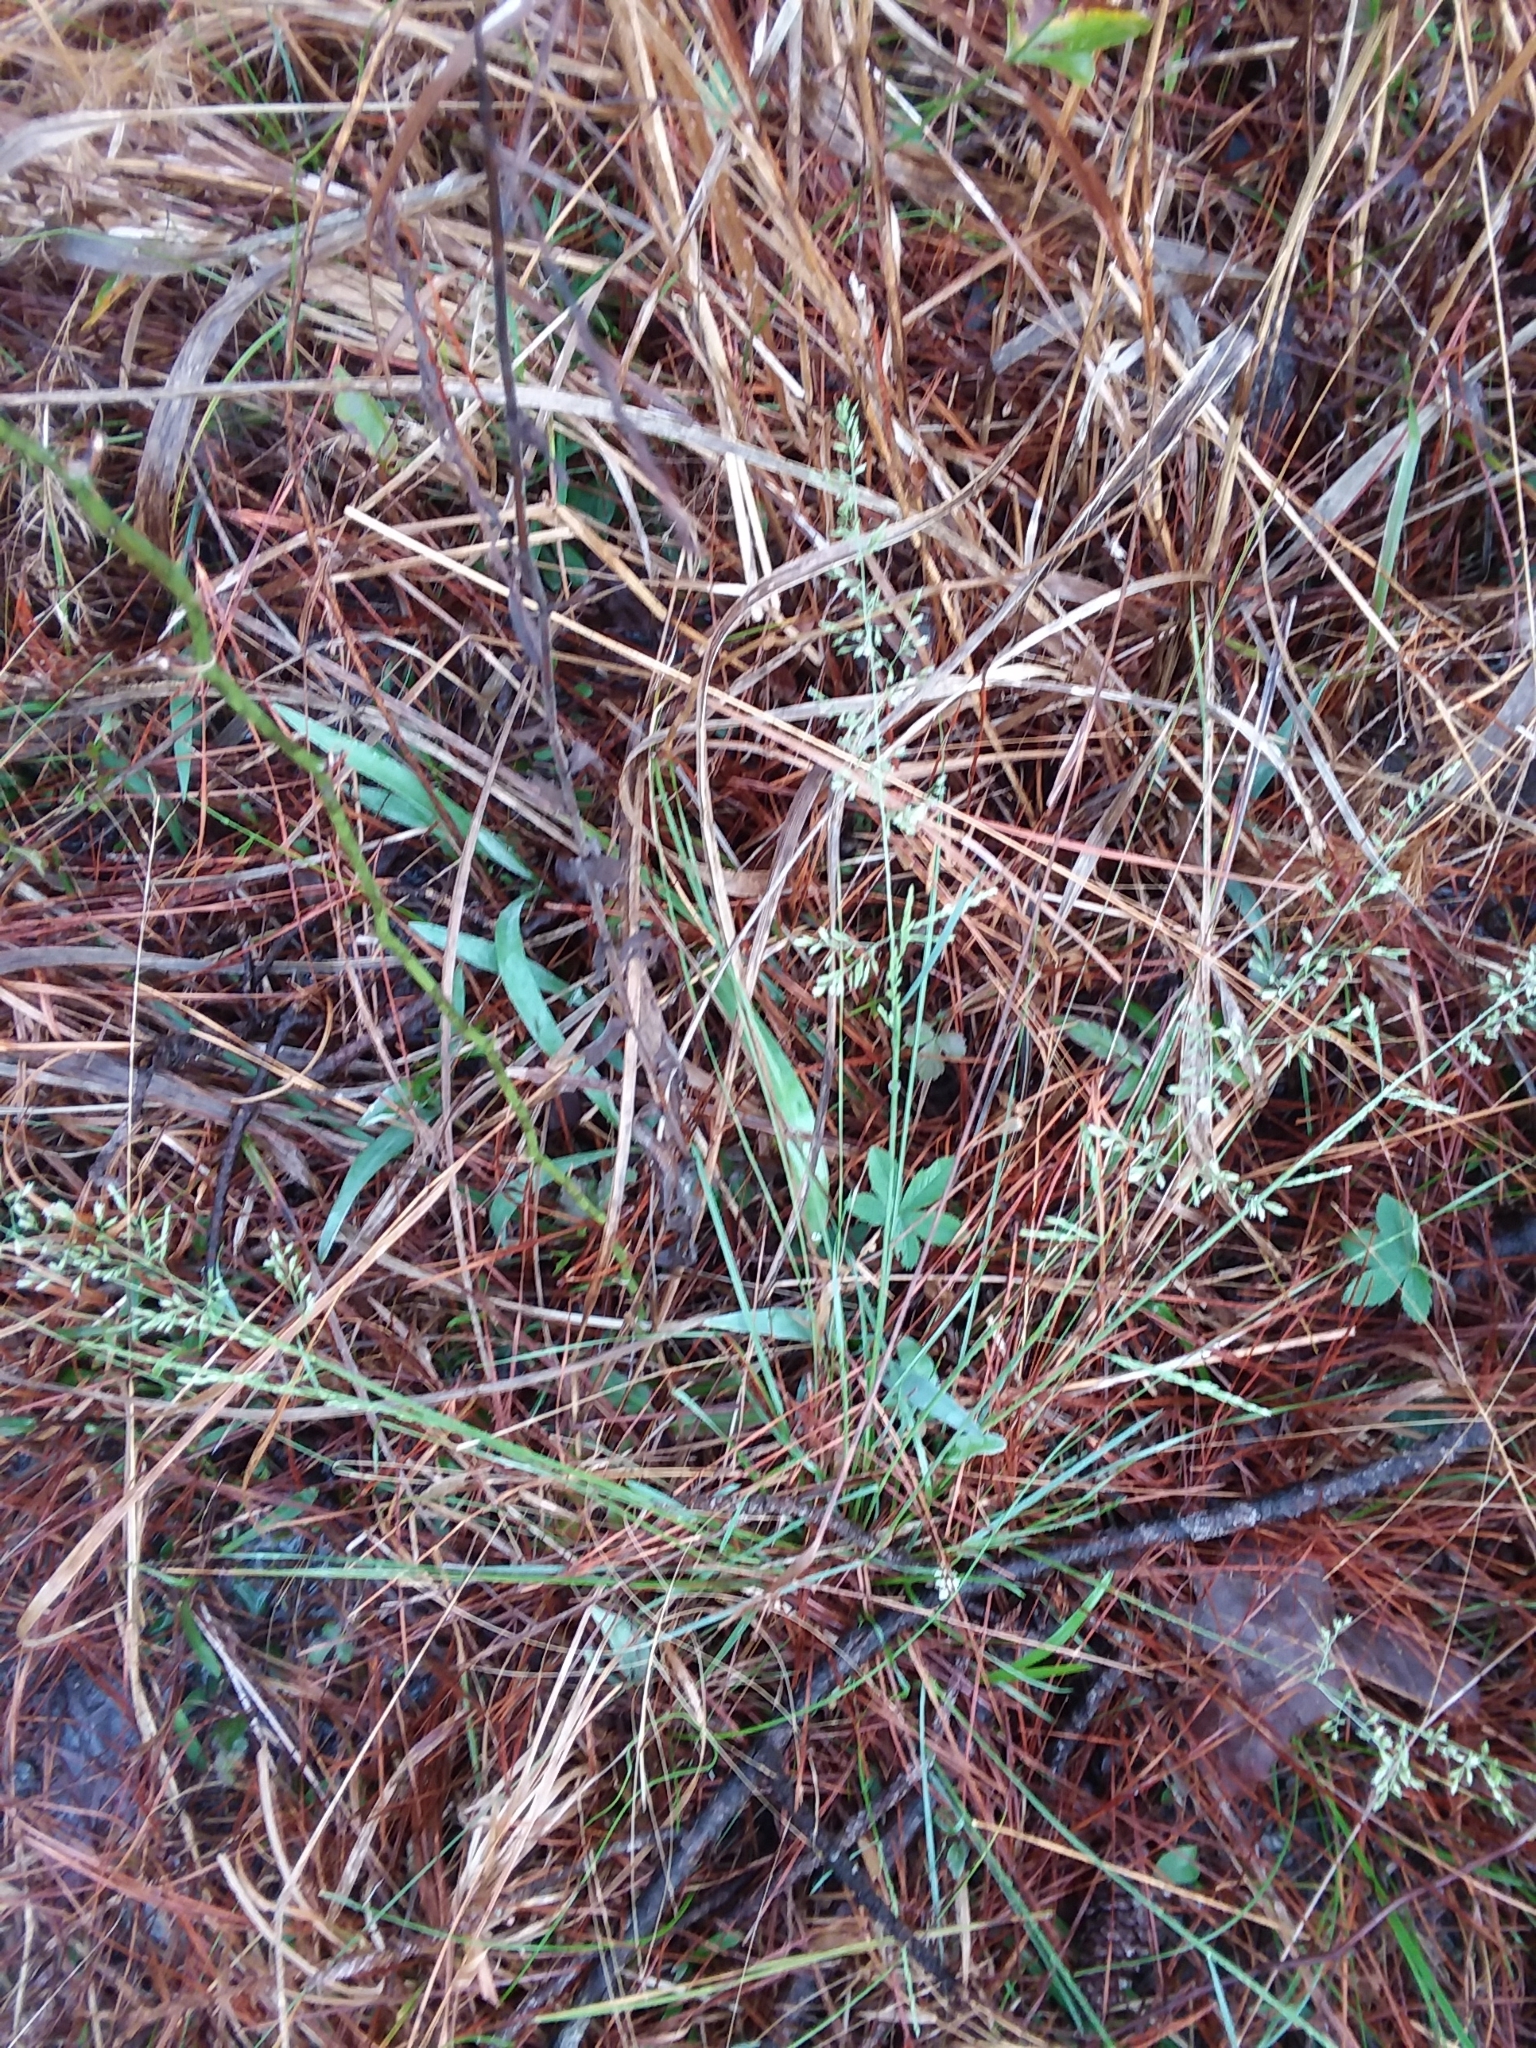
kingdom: Plantae
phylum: Tracheophyta
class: Liliopsida
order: Poales
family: Poaceae
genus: Sphenopholis
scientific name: Sphenopholis nitida
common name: Shiny wedgegrass
